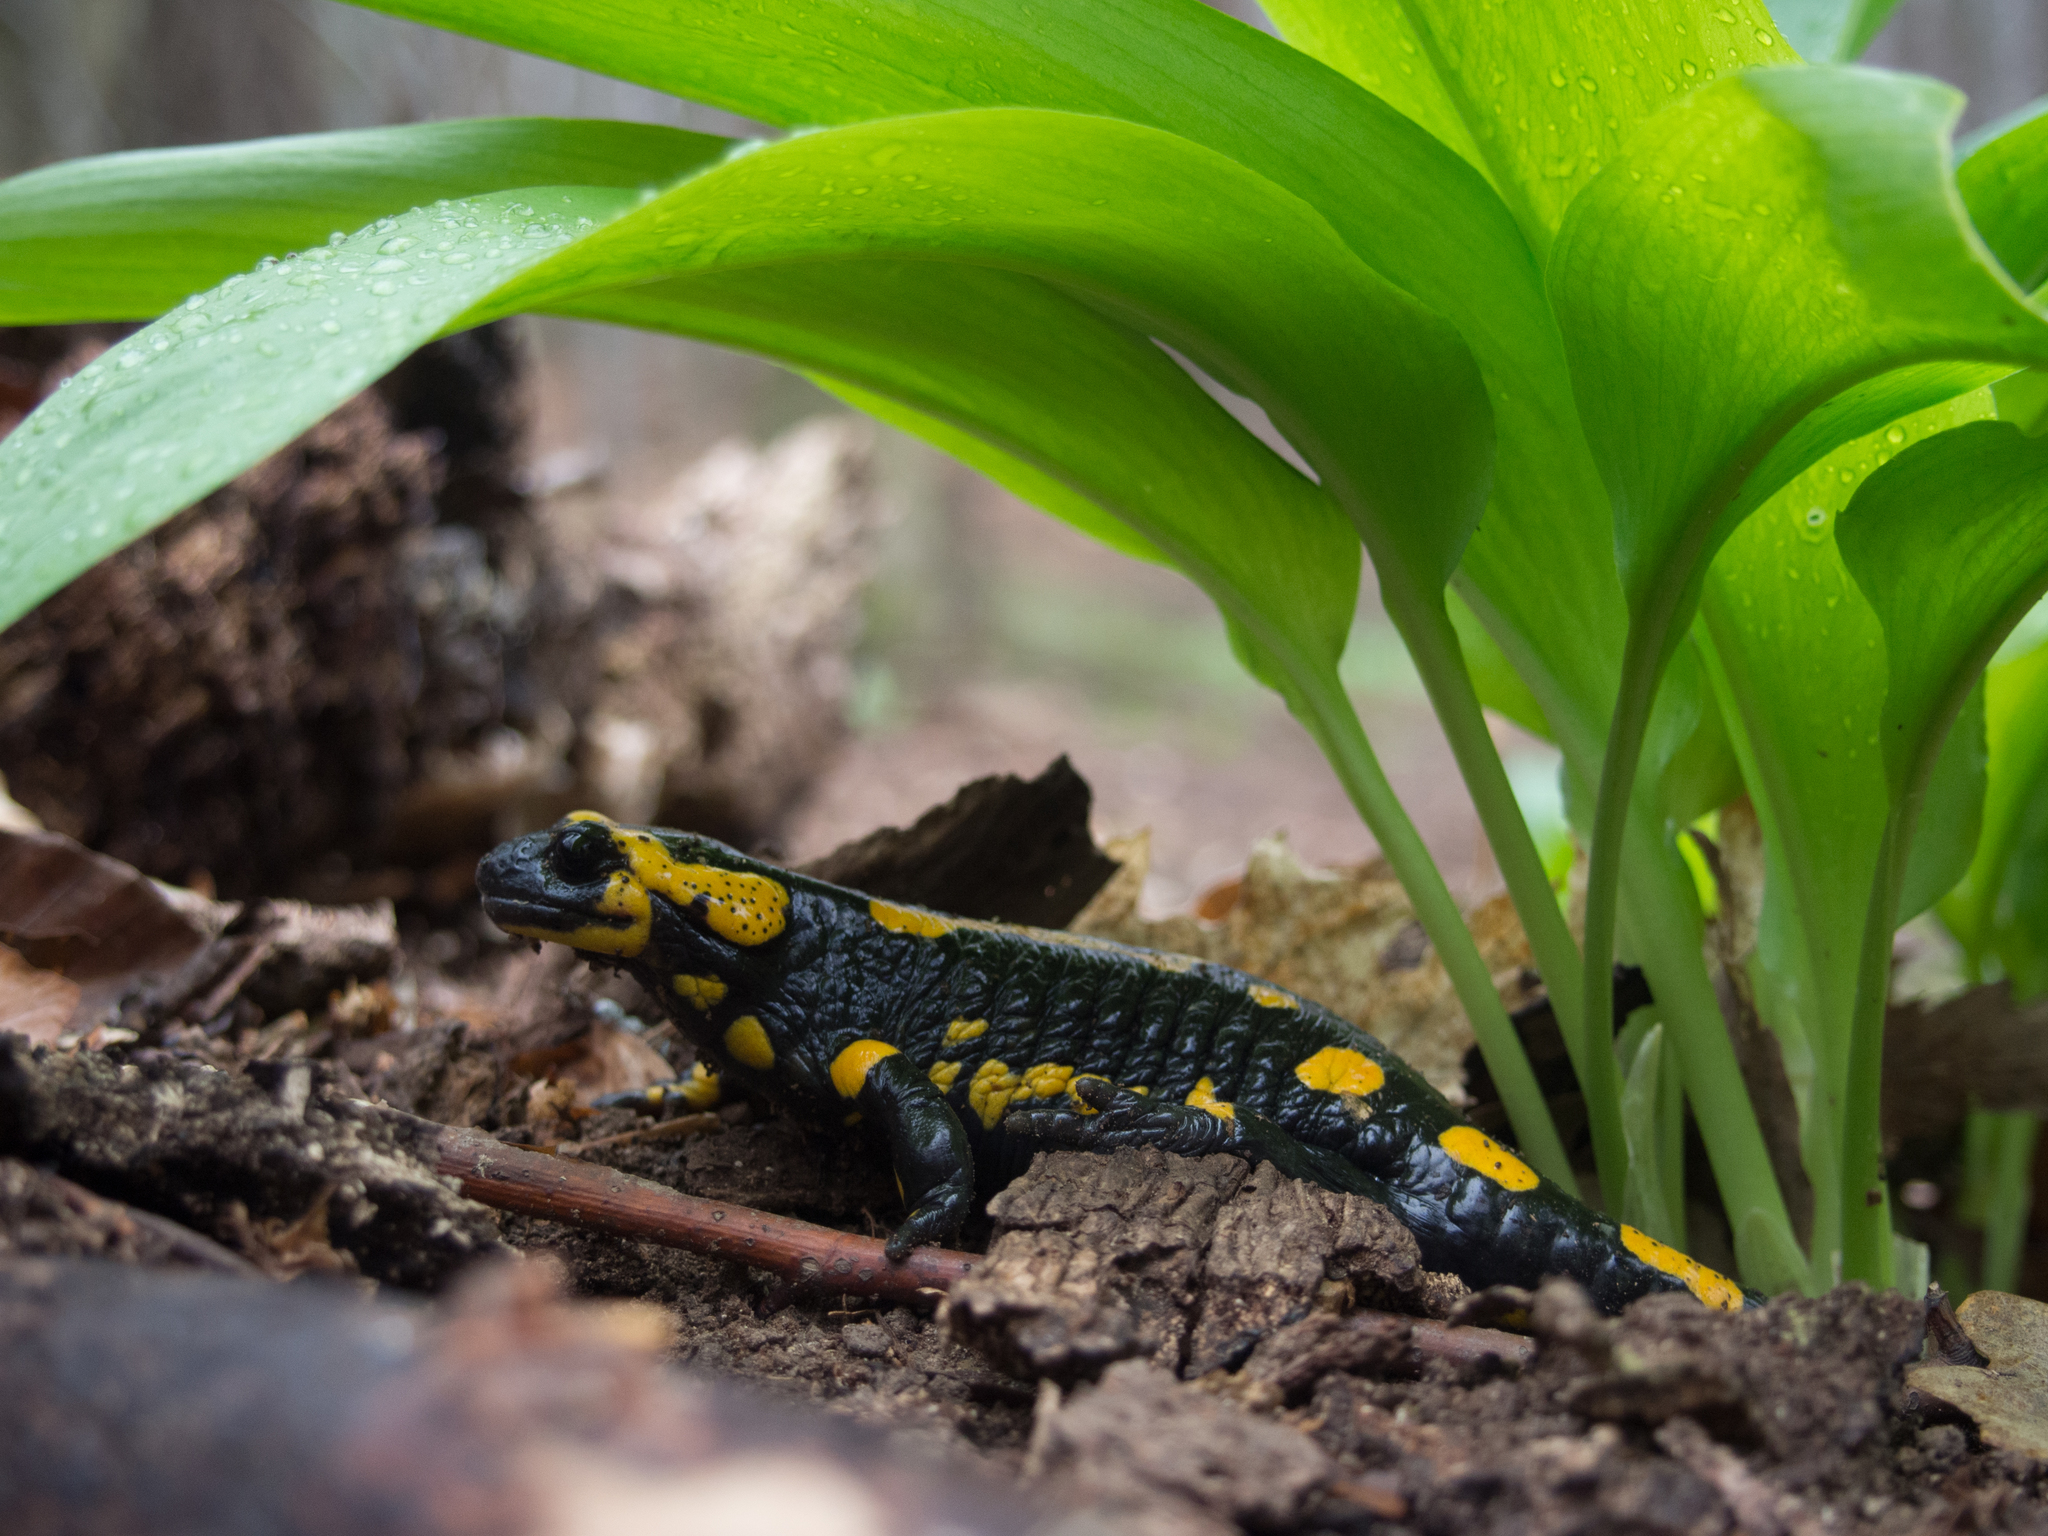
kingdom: Animalia
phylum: Chordata
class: Amphibia
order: Caudata
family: Salamandridae
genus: Salamandra
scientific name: Salamandra salamandra
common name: Fire salamander
